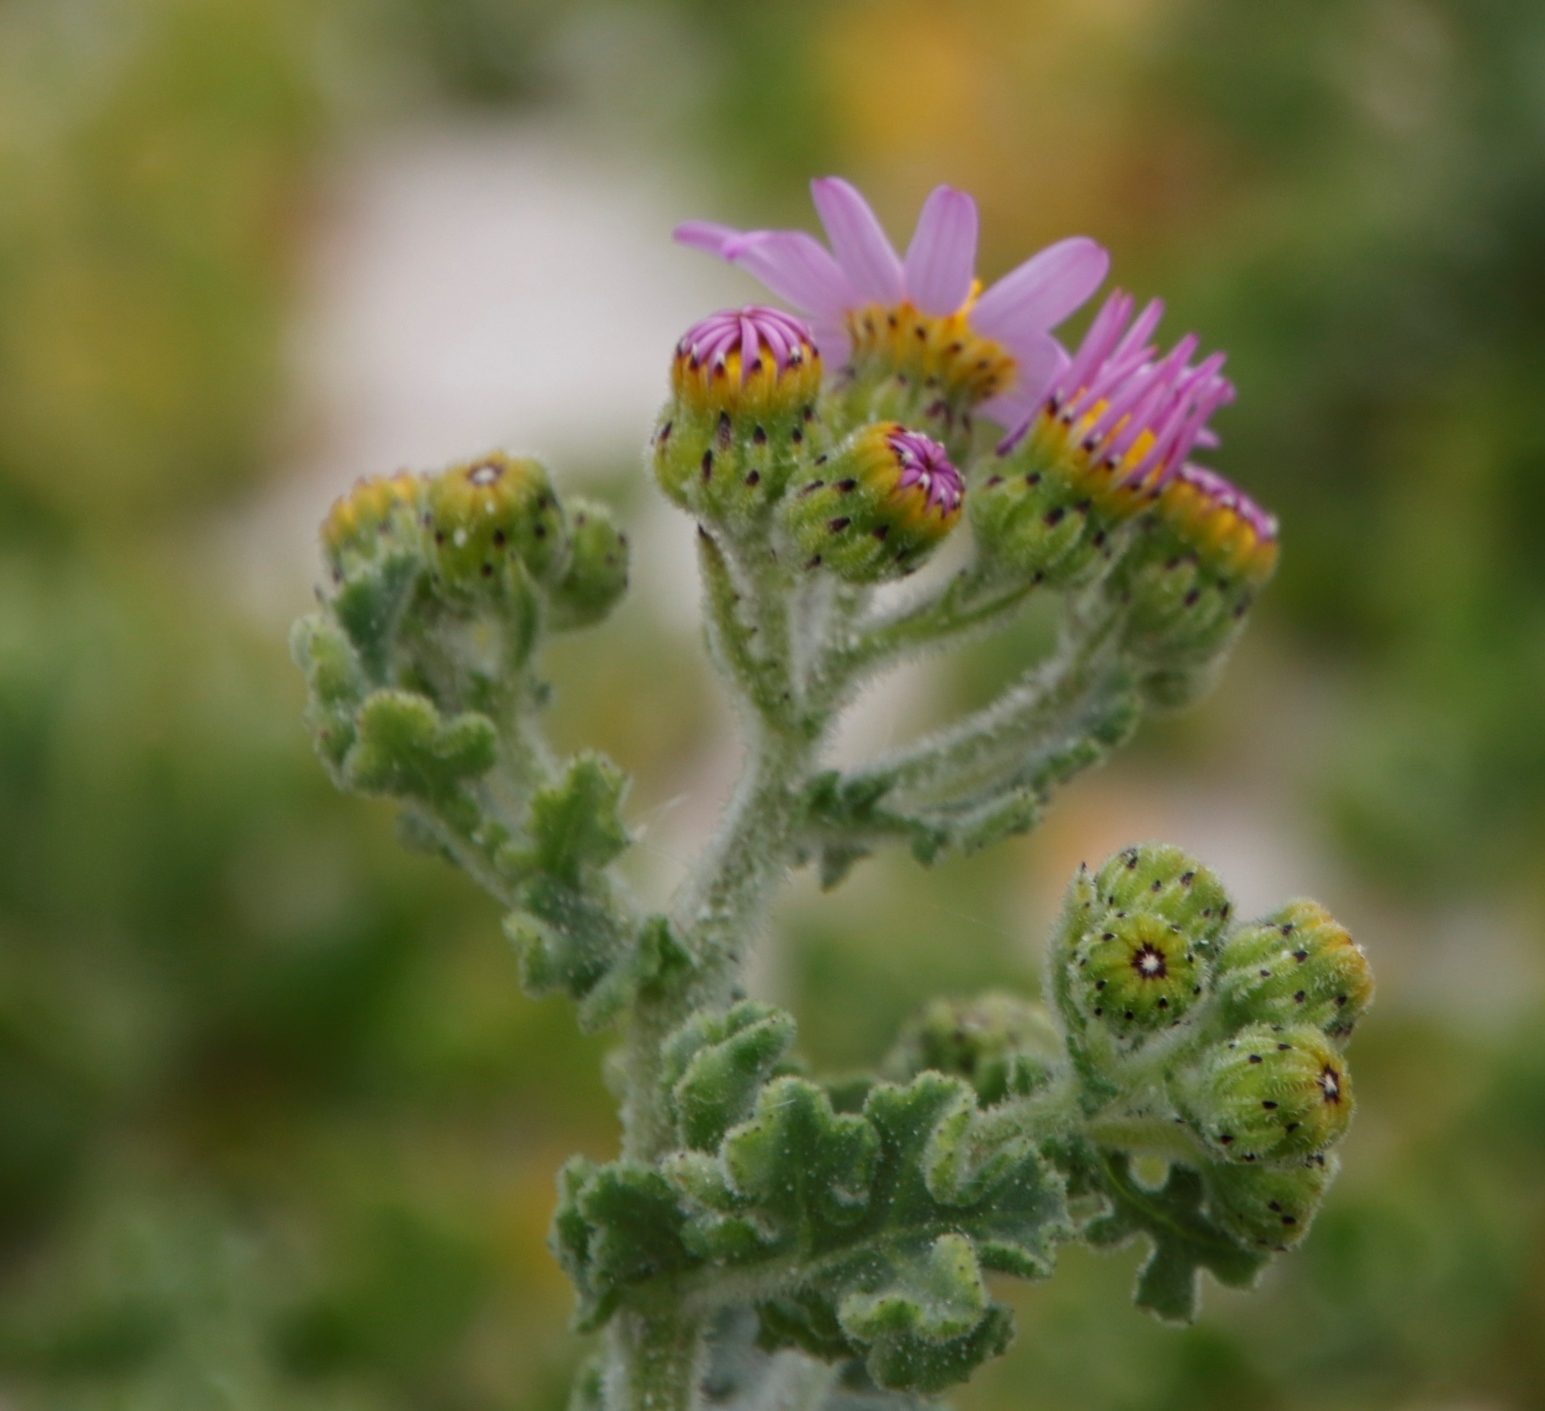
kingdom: Plantae
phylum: Tracheophyta
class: Magnoliopsida
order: Asterales
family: Asteraceae
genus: Senecio
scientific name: Senecio elegans
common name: Purple groundsel
